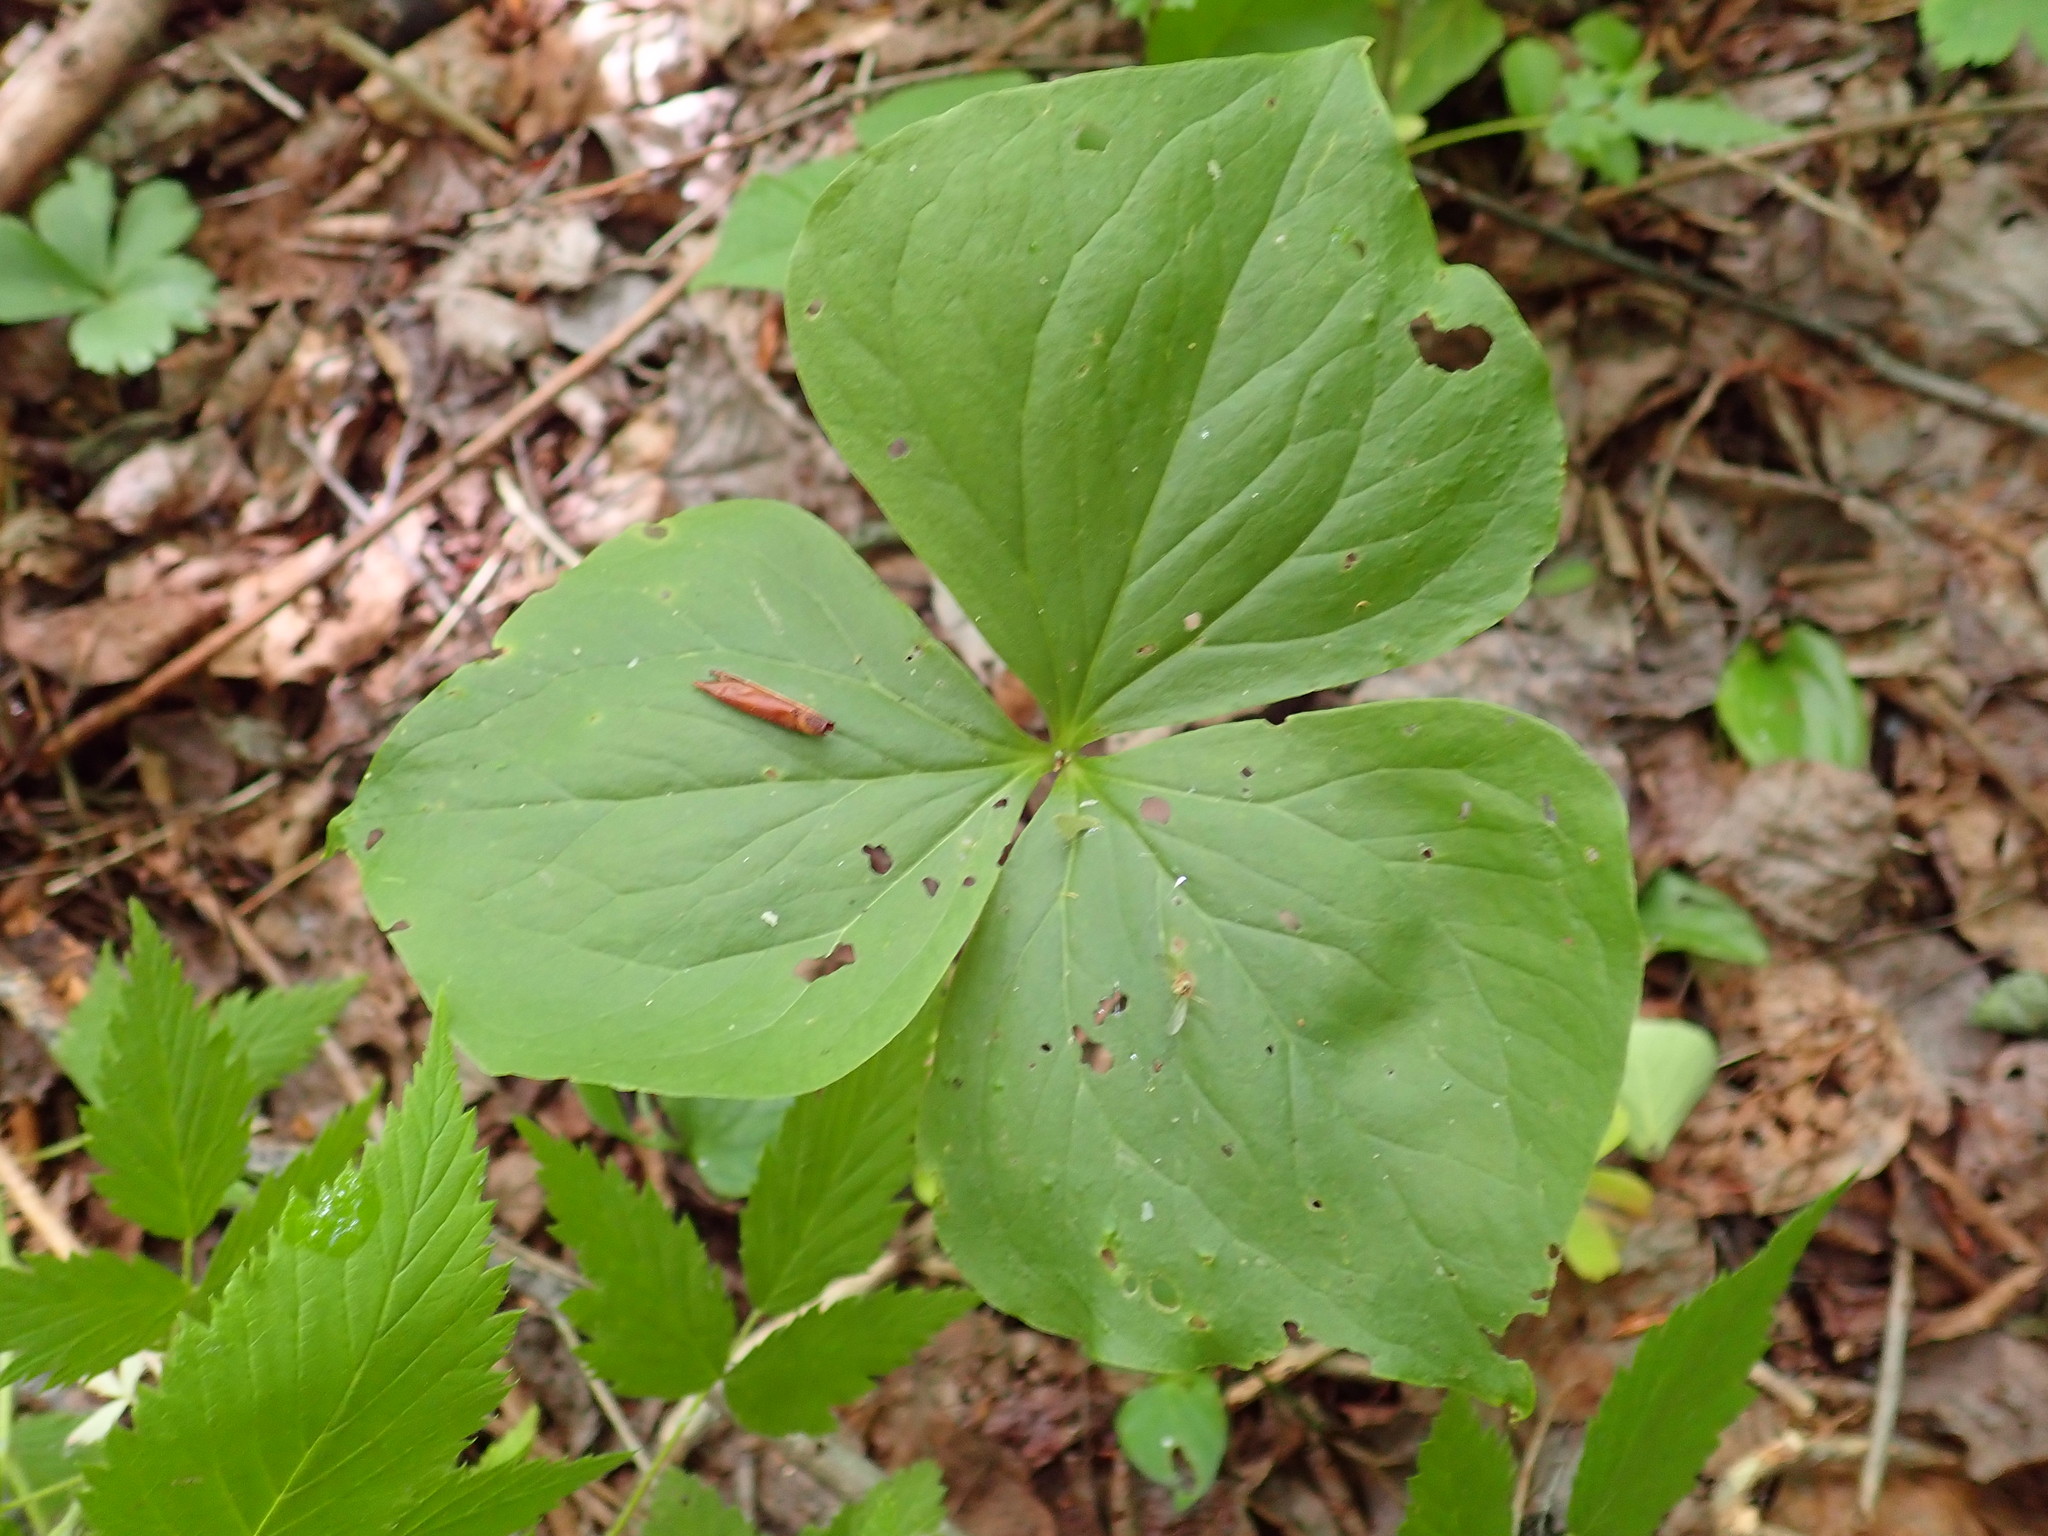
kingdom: Plantae
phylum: Tracheophyta
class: Liliopsida
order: Liliales
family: Melanthiaceae
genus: Trillium
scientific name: Trillium cernuum
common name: Nodding trillium
